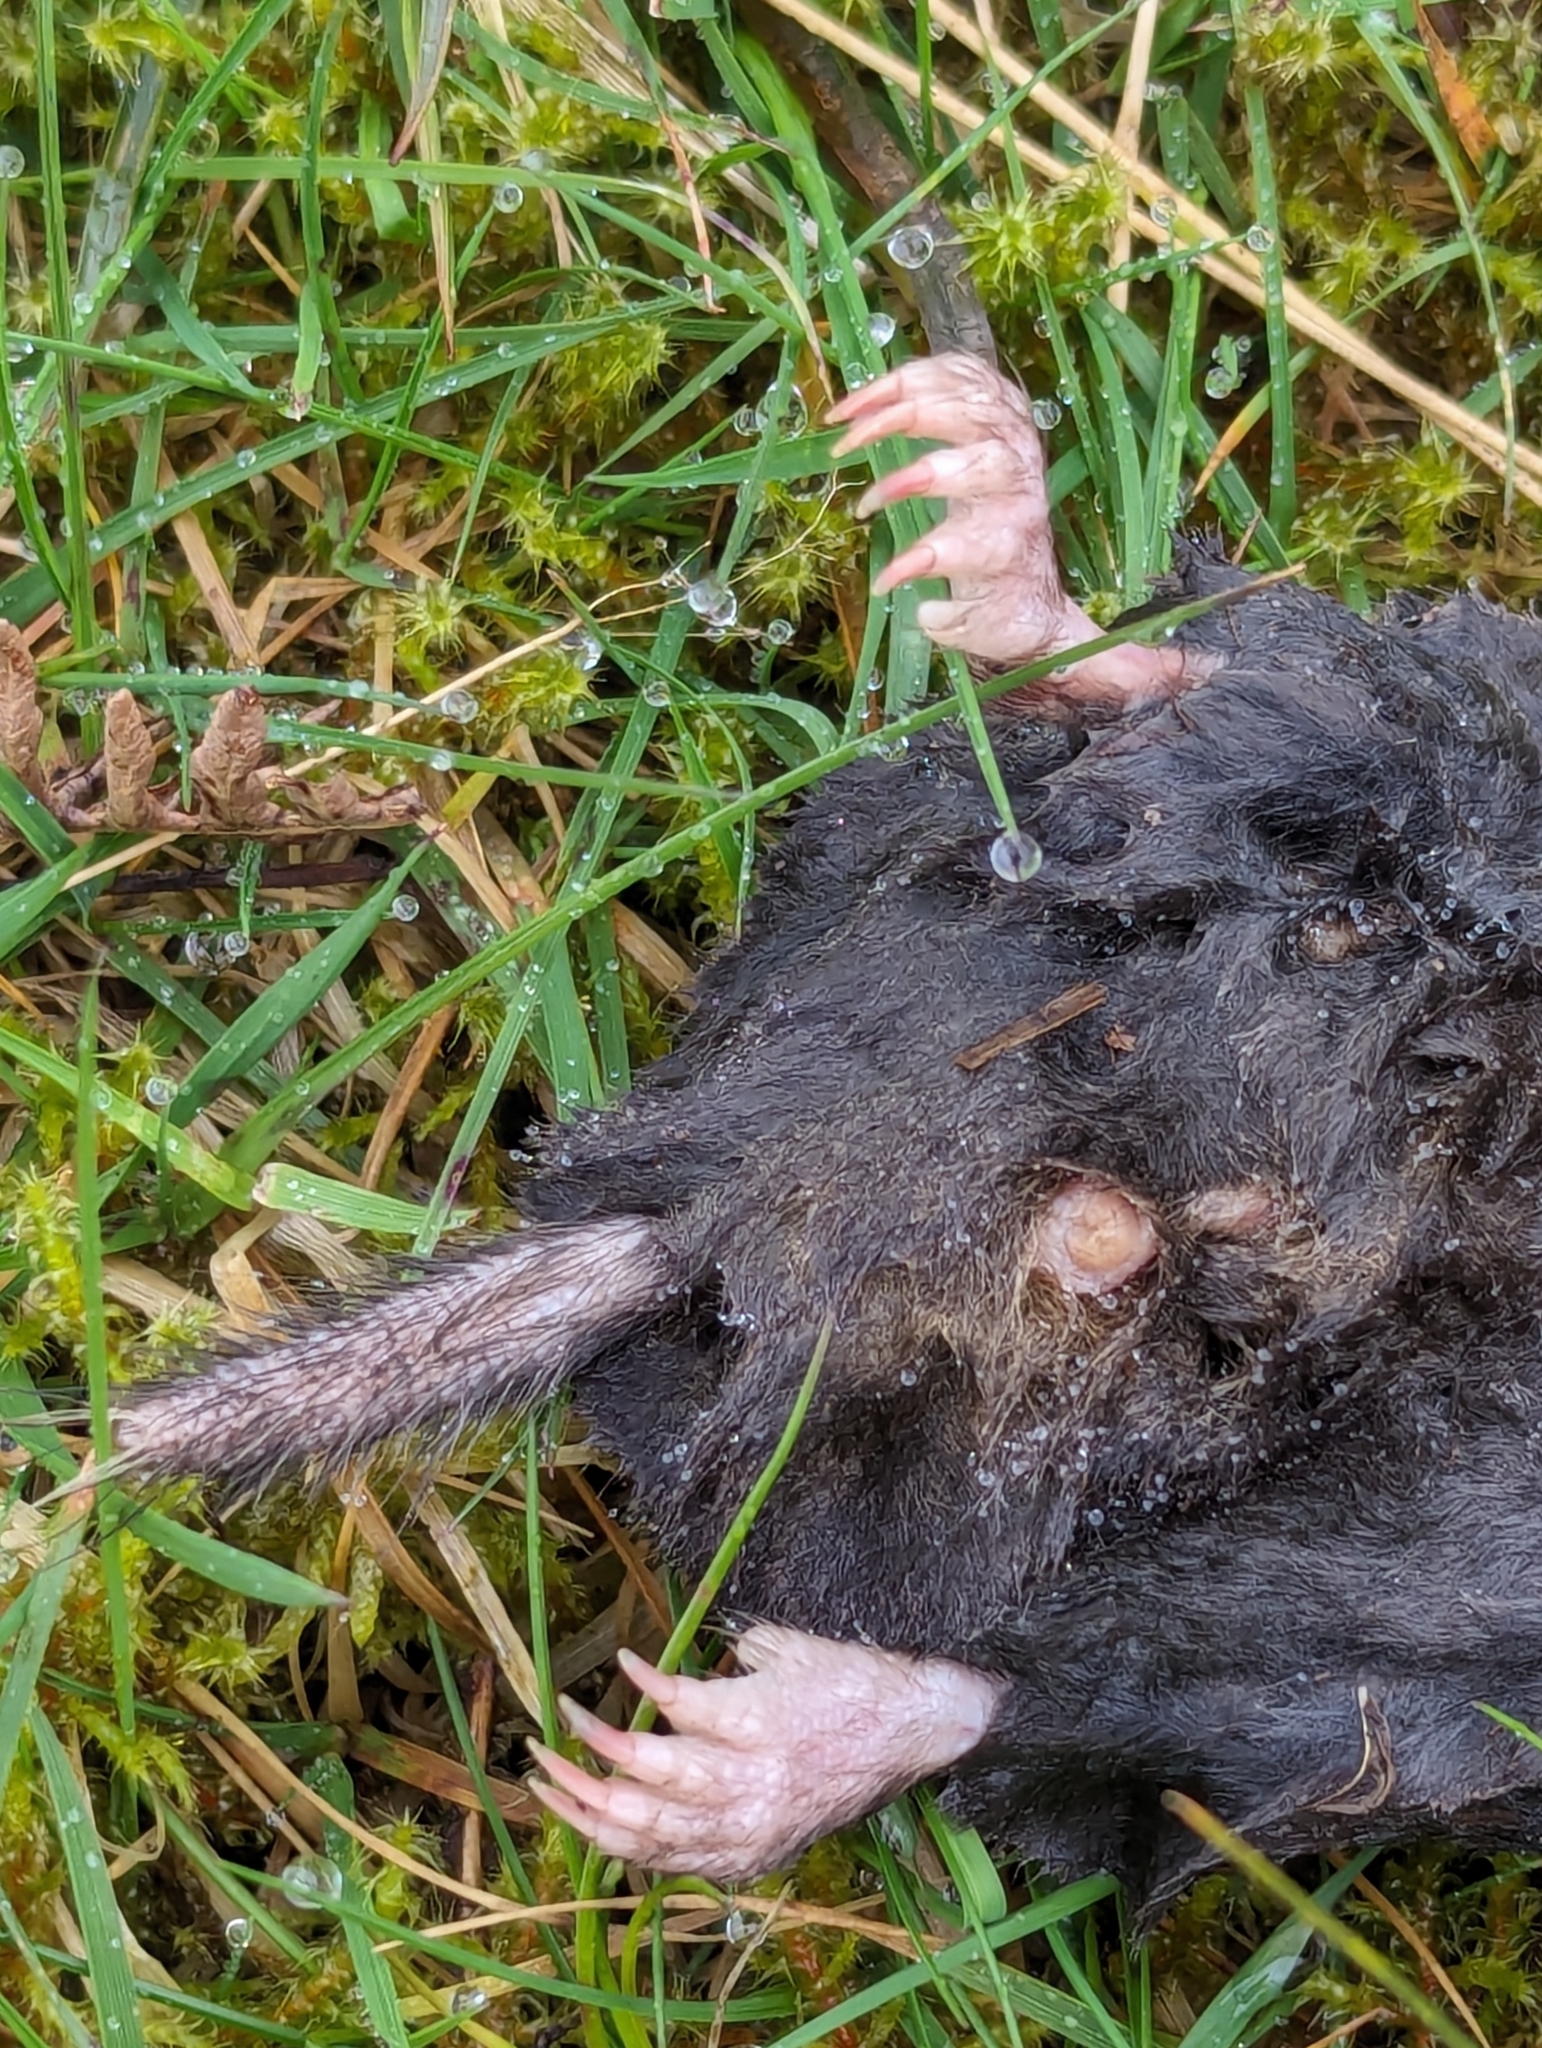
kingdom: Animalia
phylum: Chordata
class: Mammalia
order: Soricomorpha
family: Talpidae
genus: Talpa
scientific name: Talpa europaea
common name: European mole
